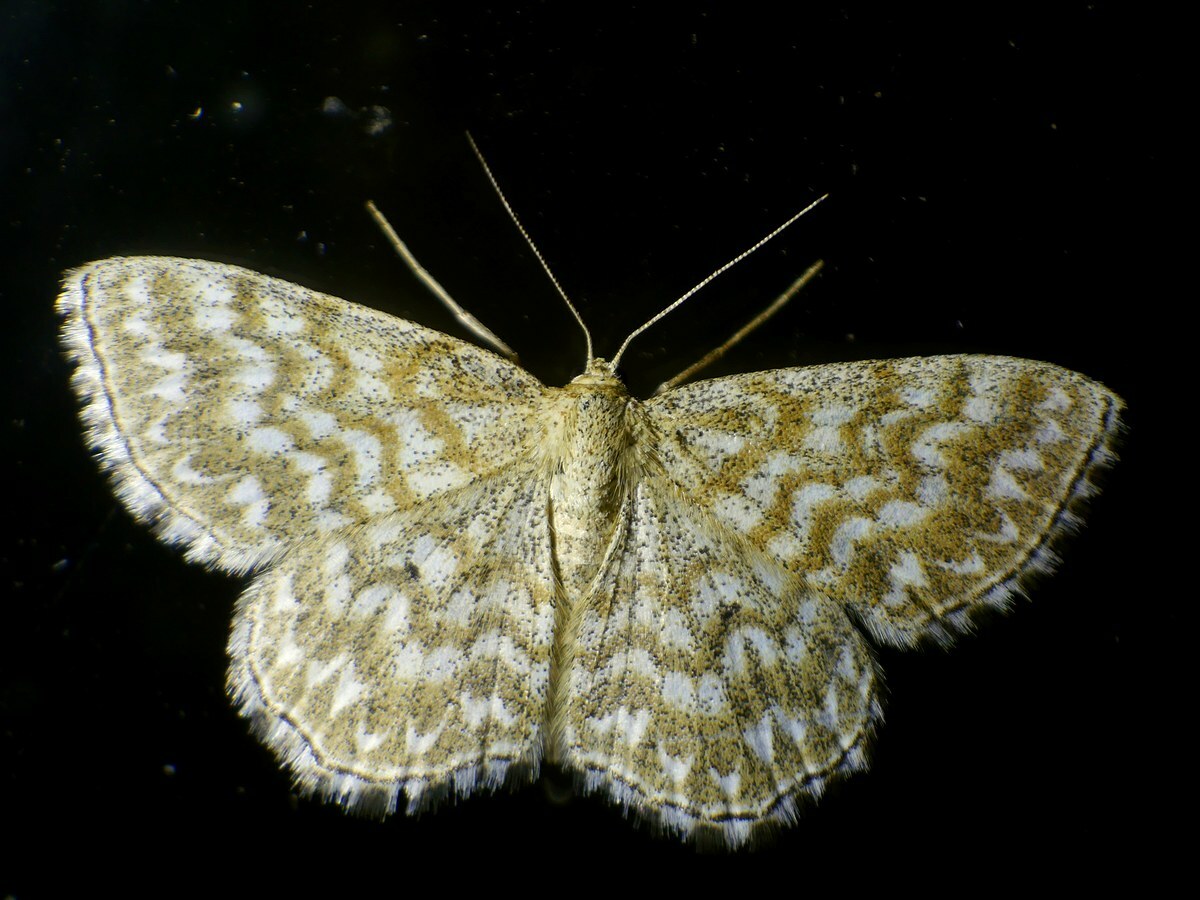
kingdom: Animalia
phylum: Arthropoda
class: Insecta
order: Lepidoptera
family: Geometridae
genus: Scopula
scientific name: Scopula immorata
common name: Lewes wave
